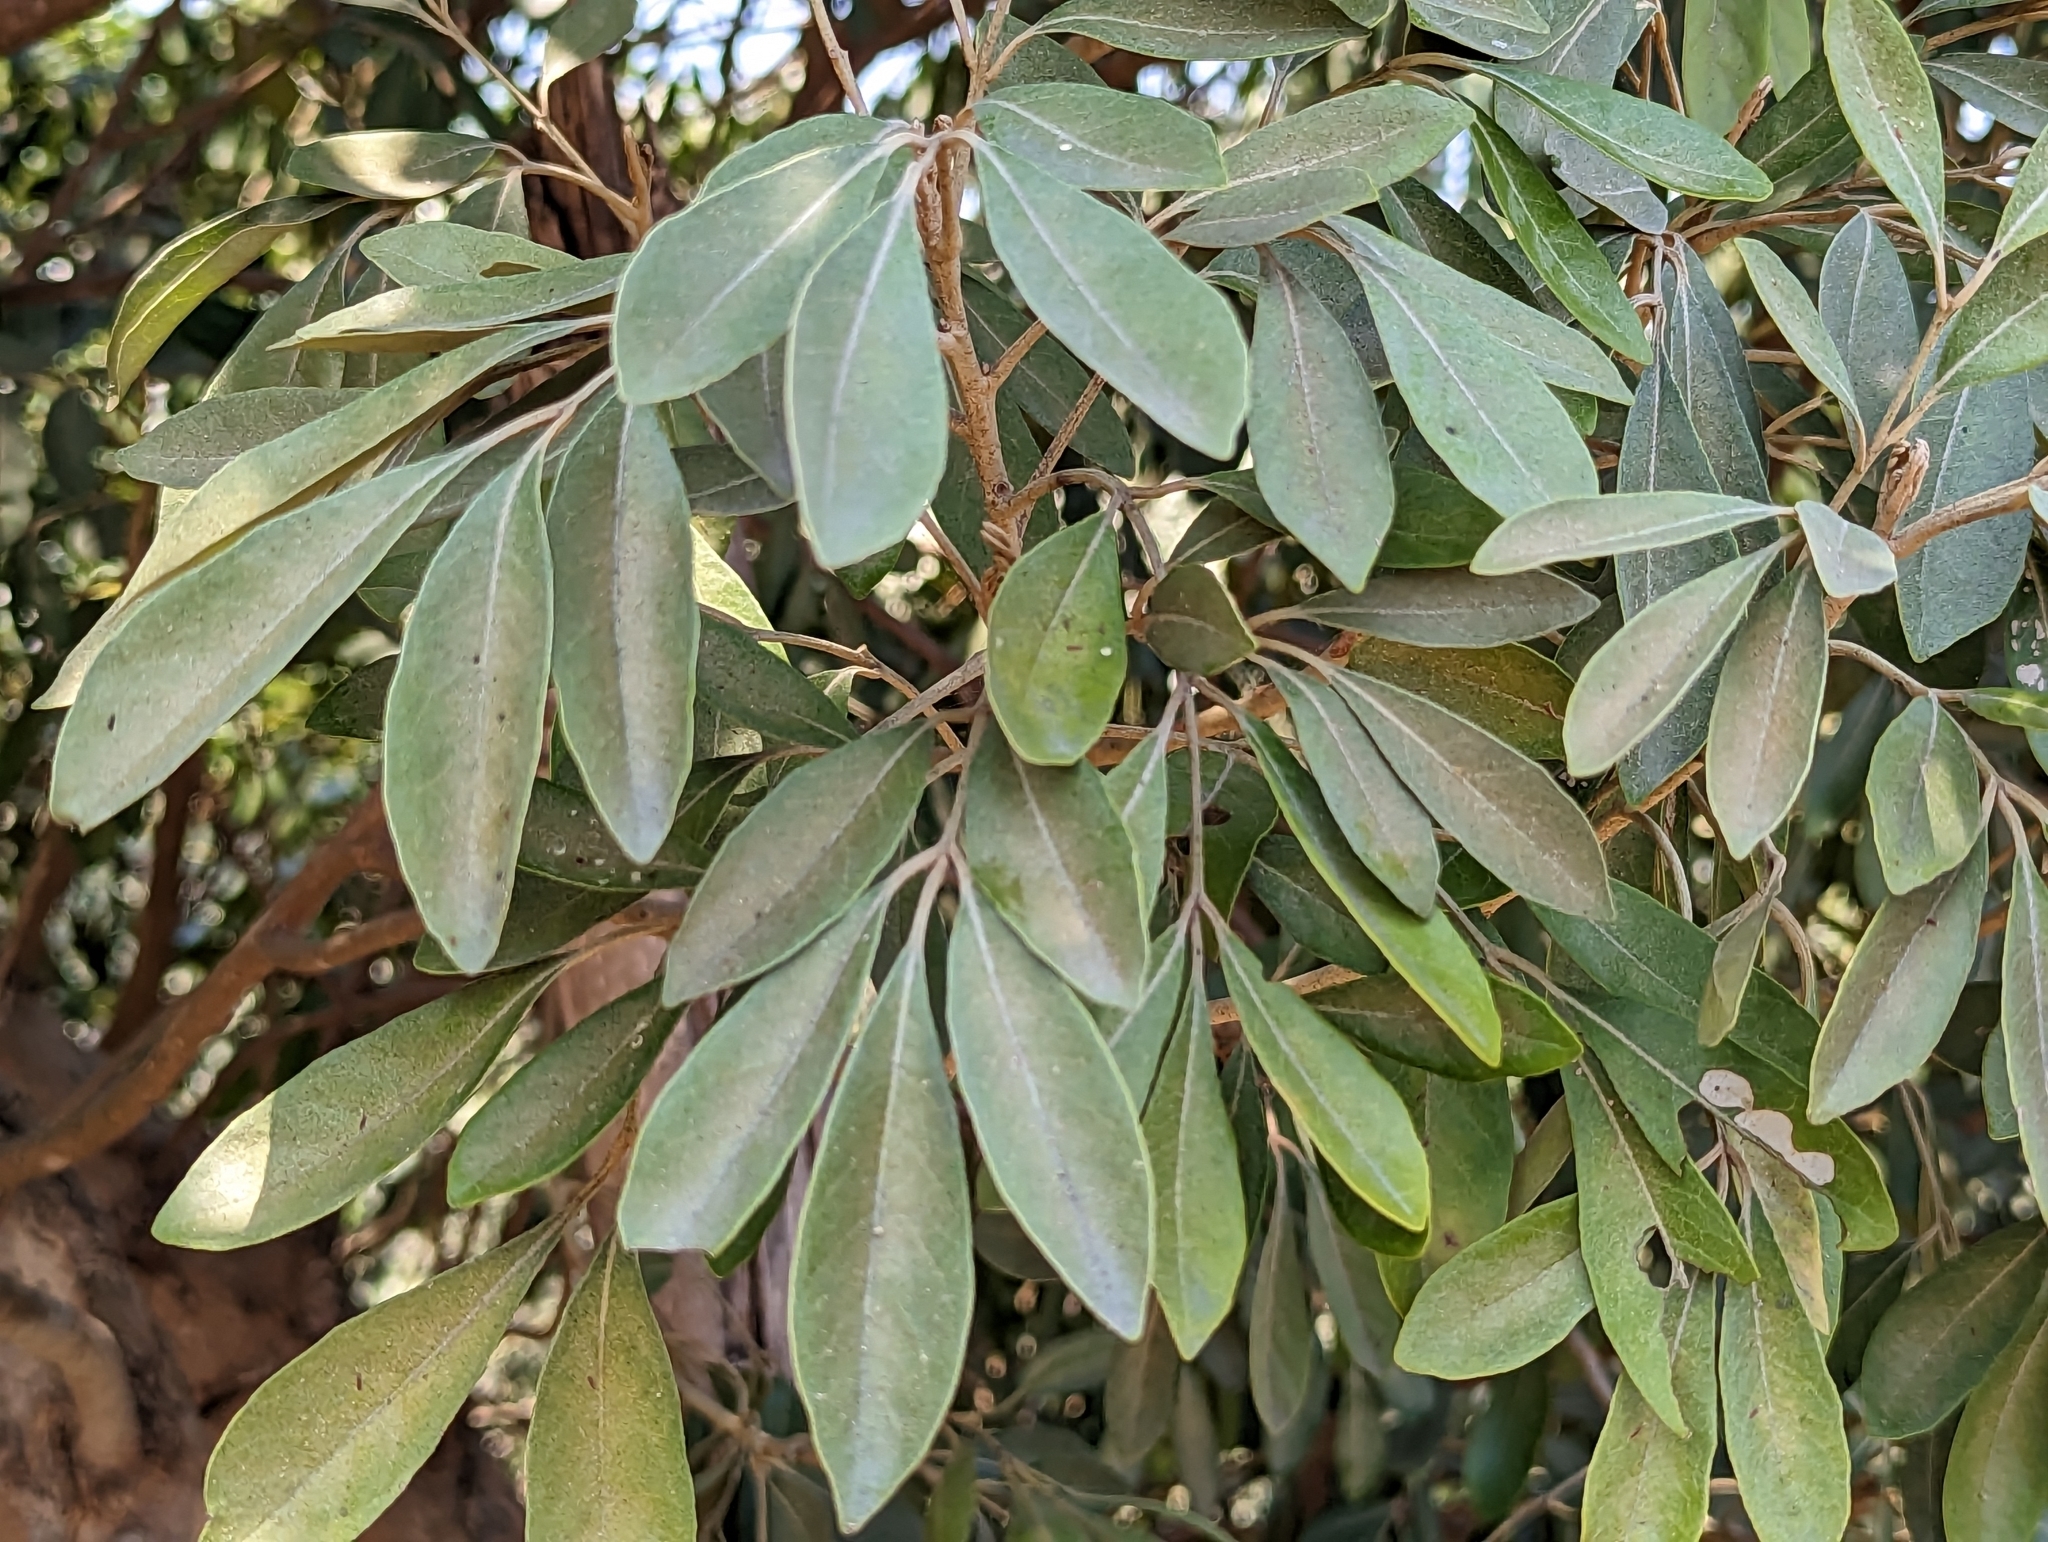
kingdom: Plantae
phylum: Tracheophyta
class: Magnoliopsida
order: Sapindales
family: Meliaceae
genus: Aglaia
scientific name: Aglaia elaeagnoidea
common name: Droopyleaf
